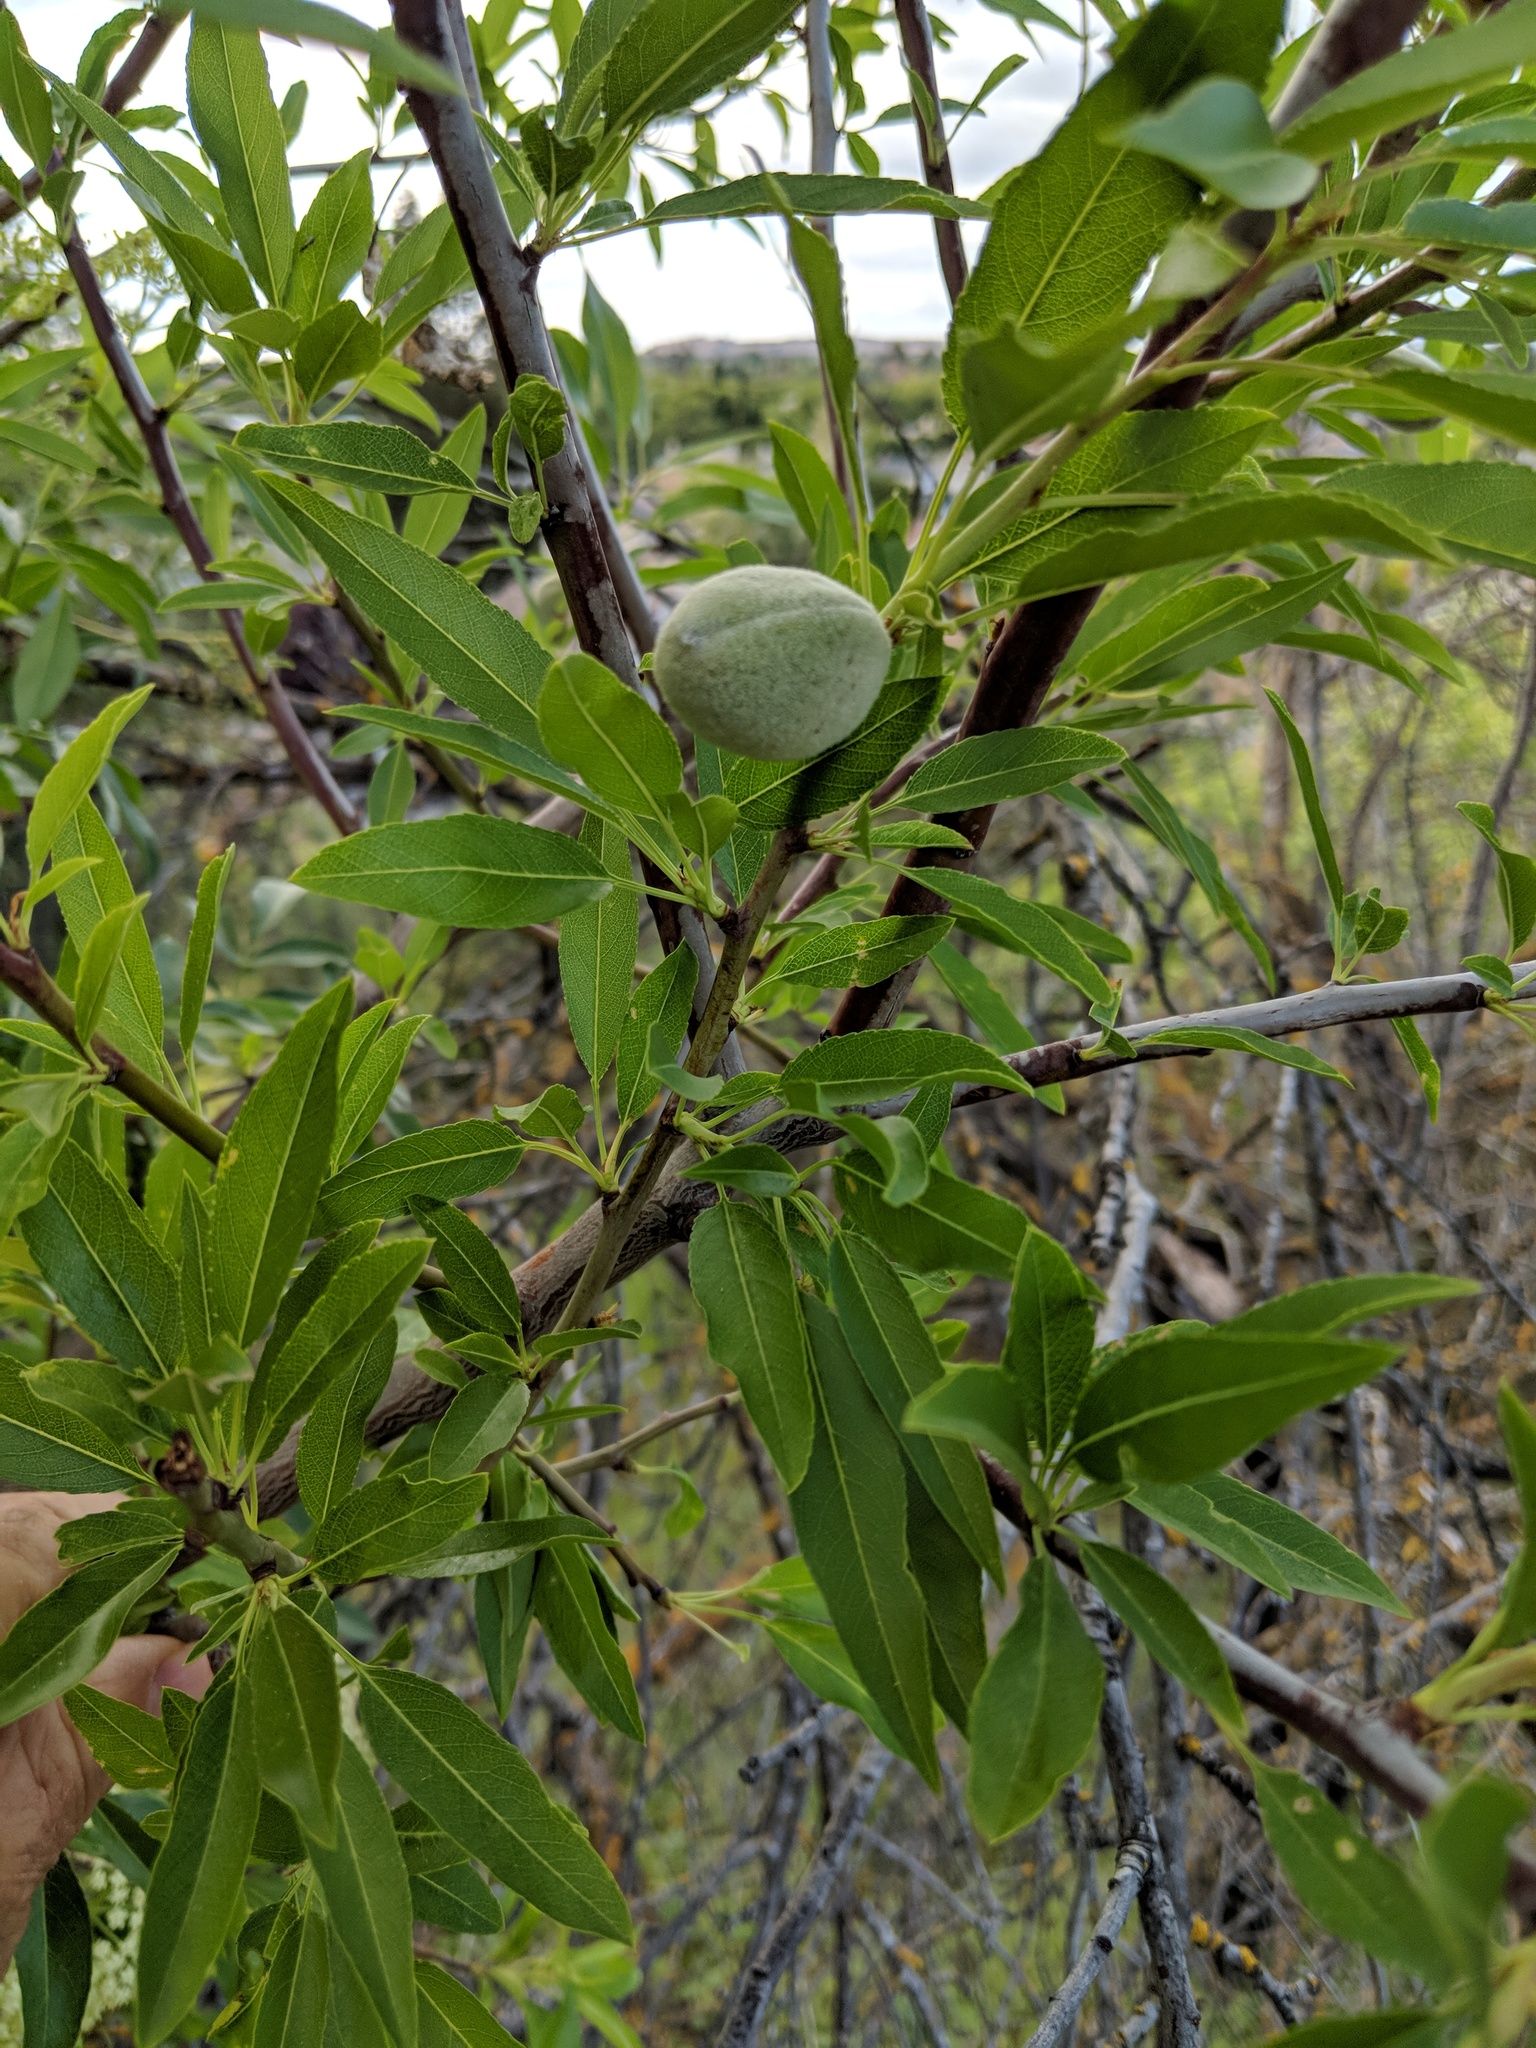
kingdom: Plantae
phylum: Tracheophyta
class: Magnoliopsida
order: Rosales
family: Rosaceae
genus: Prunus
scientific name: Prunus amygdalus
